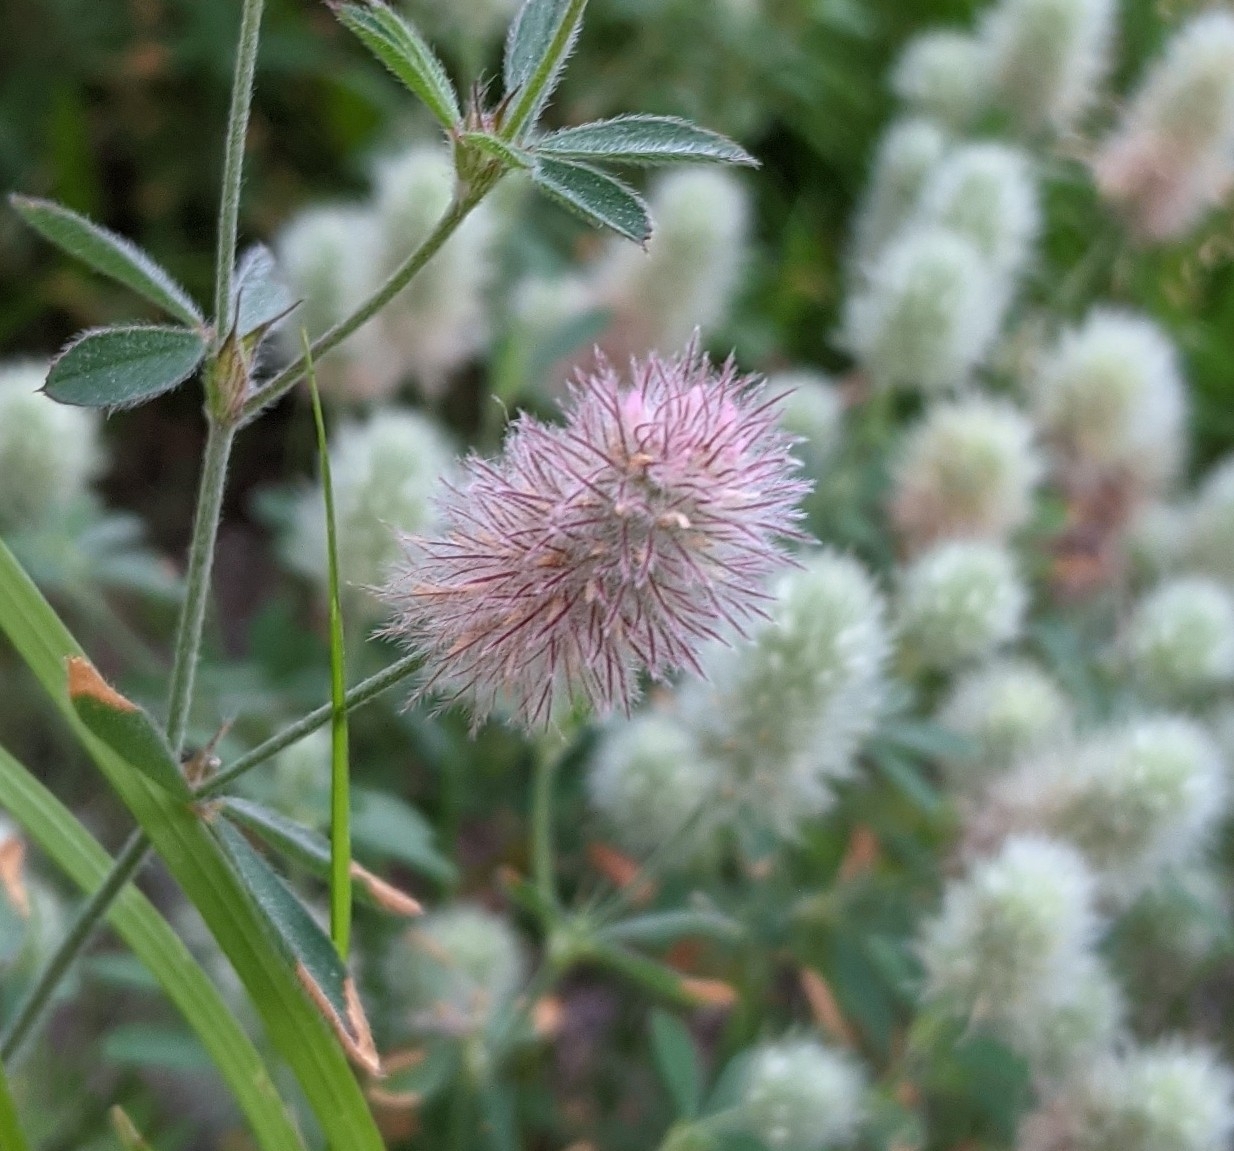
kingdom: Plantae
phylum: Tracheophyta
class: Magnoliopsida
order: Fabales
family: Fabaceae
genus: Trifolium
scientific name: Trifolium arvense
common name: Hare's-foot clover
